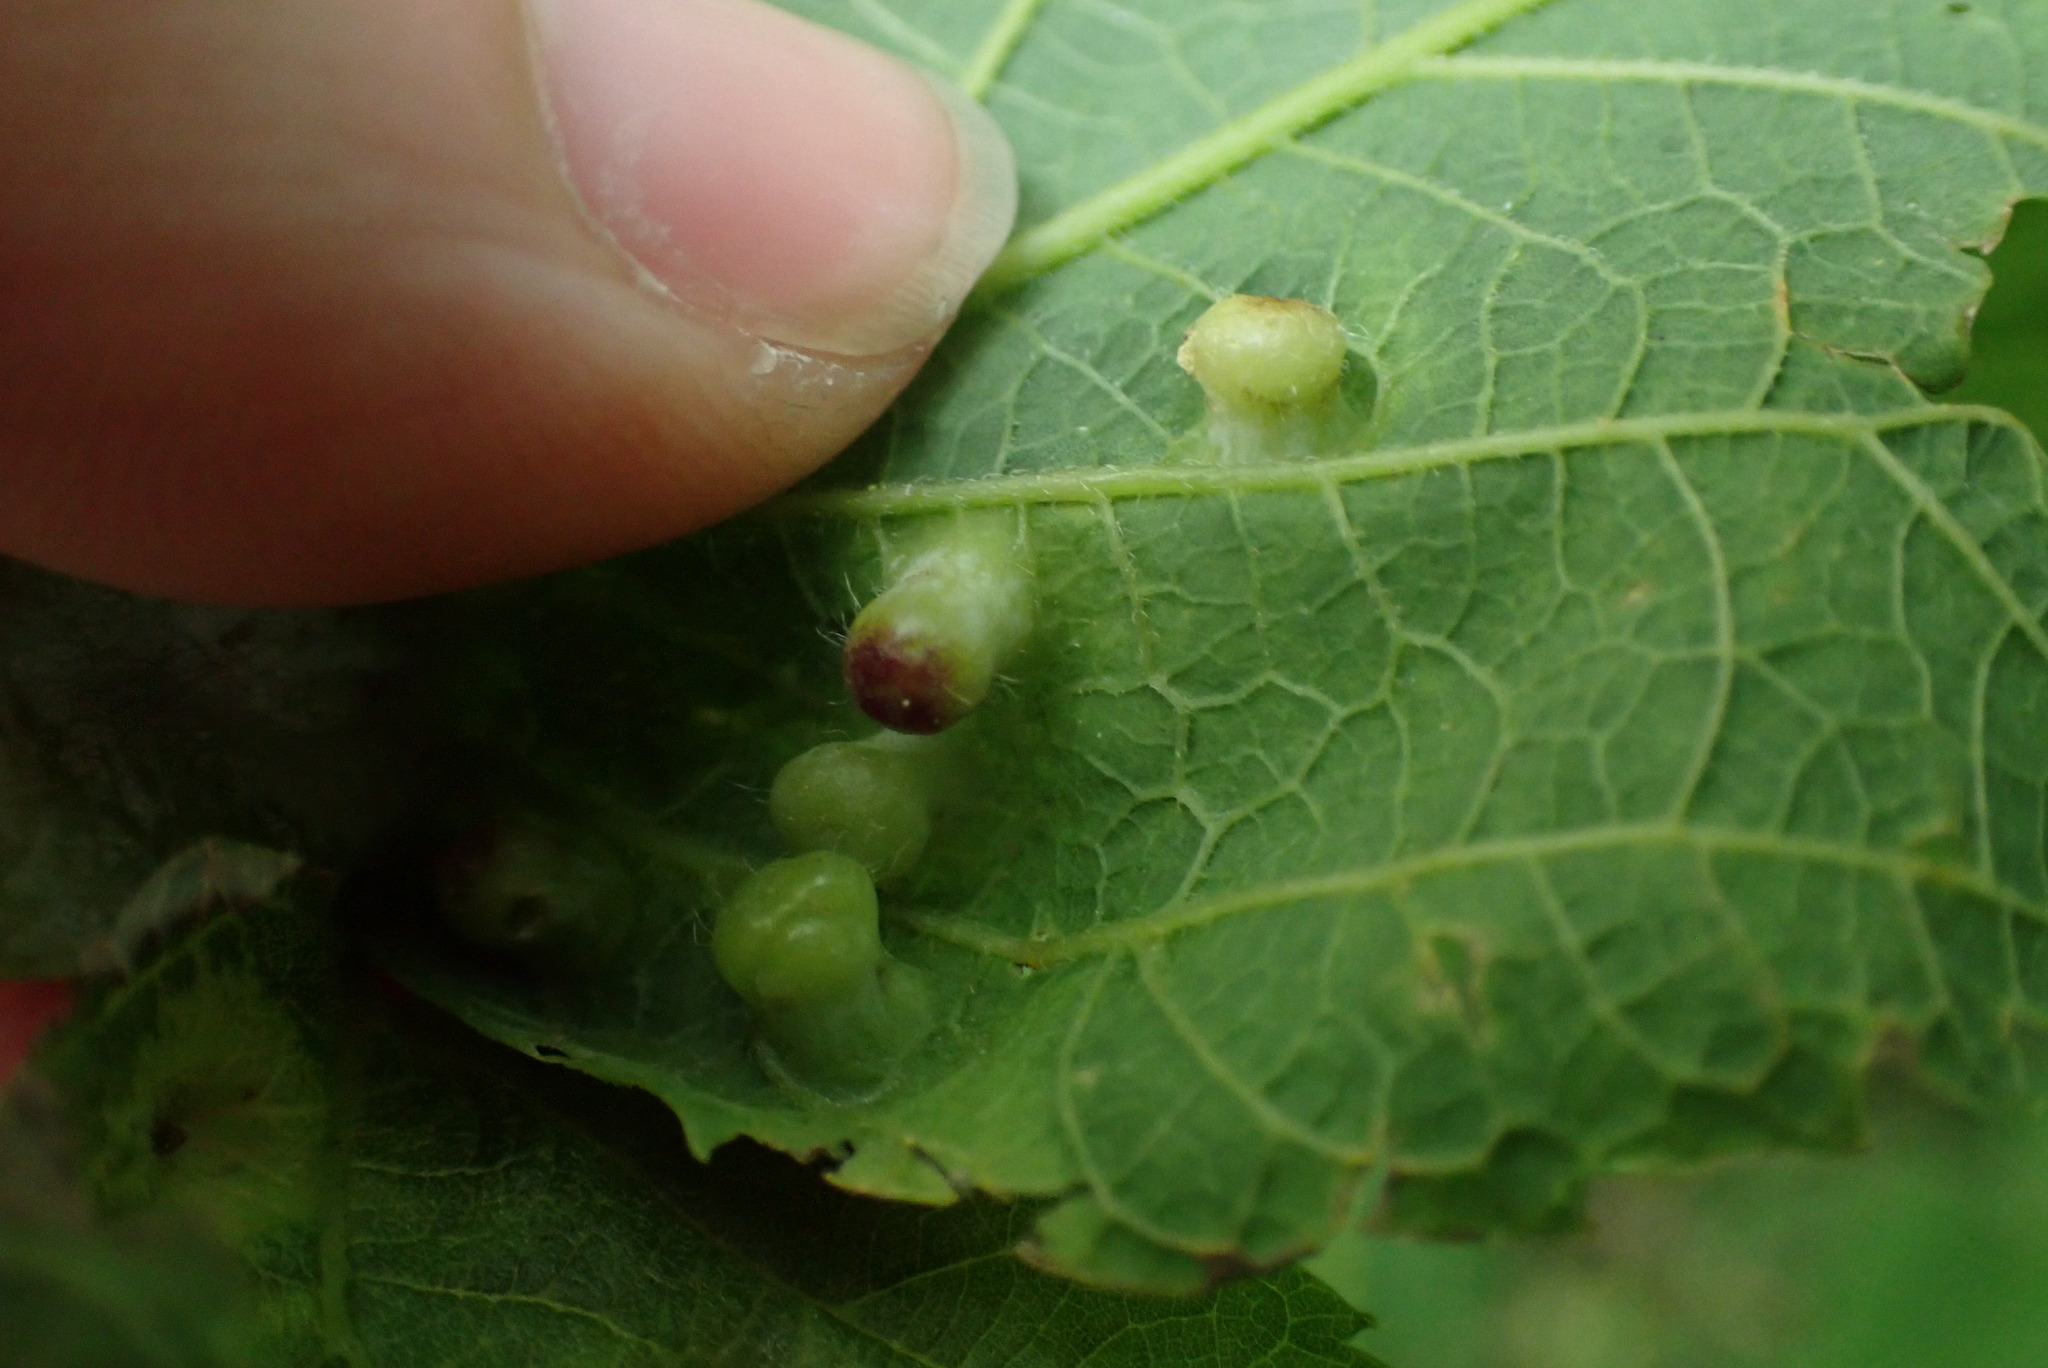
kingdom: Animalia
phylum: Arthropoda
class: Insecta
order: Hemiptera
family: Aphalaridae
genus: Pachypsylla
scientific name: Pachypsylla celtidismamma
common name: Hackberry nipplegall psyllid
